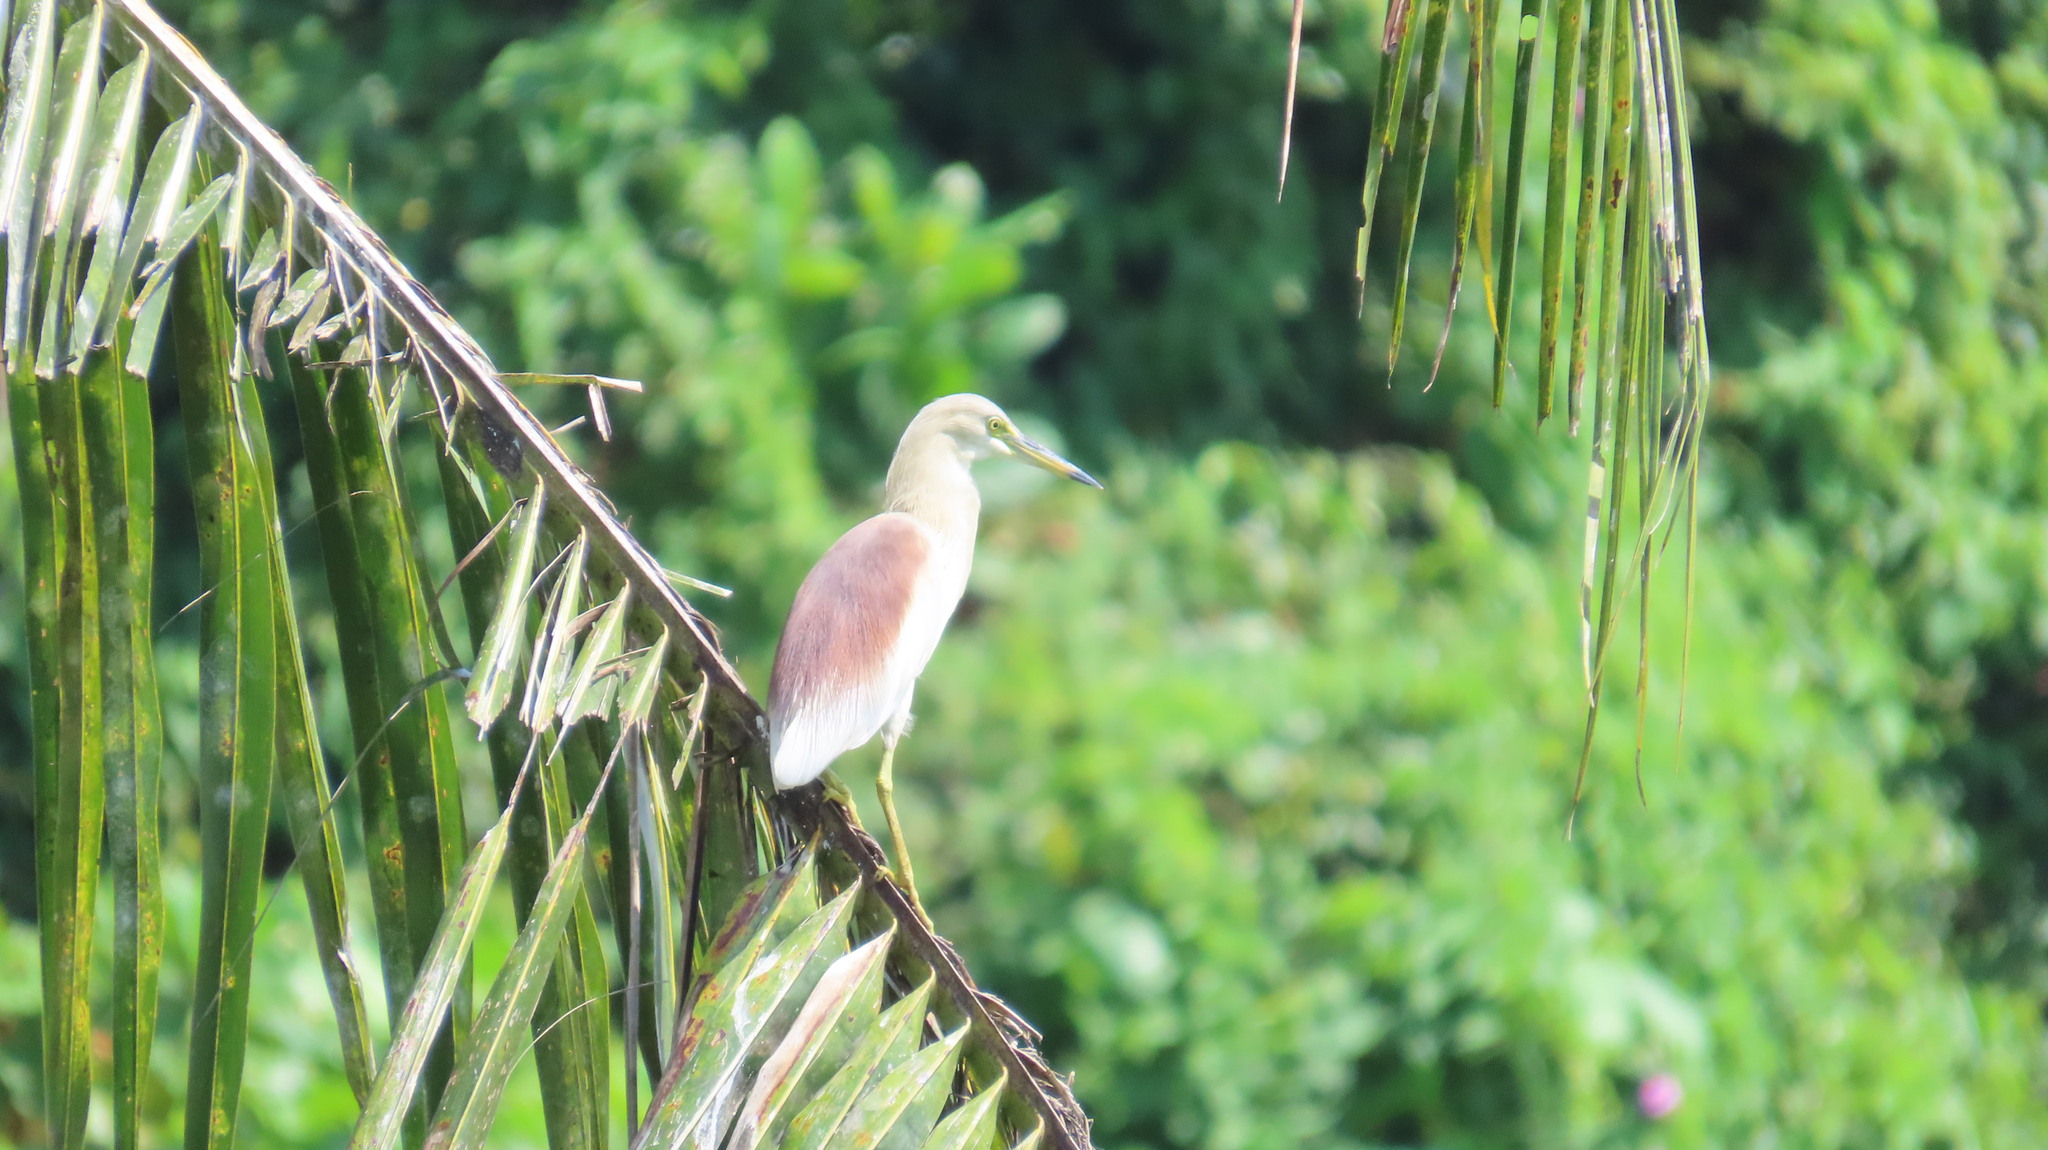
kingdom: Animalia
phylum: Chordata
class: Aves
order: Pelecaniformes
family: Ardeidae
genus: Ardeola
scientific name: Ardeola grayii
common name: Indian pond heron
